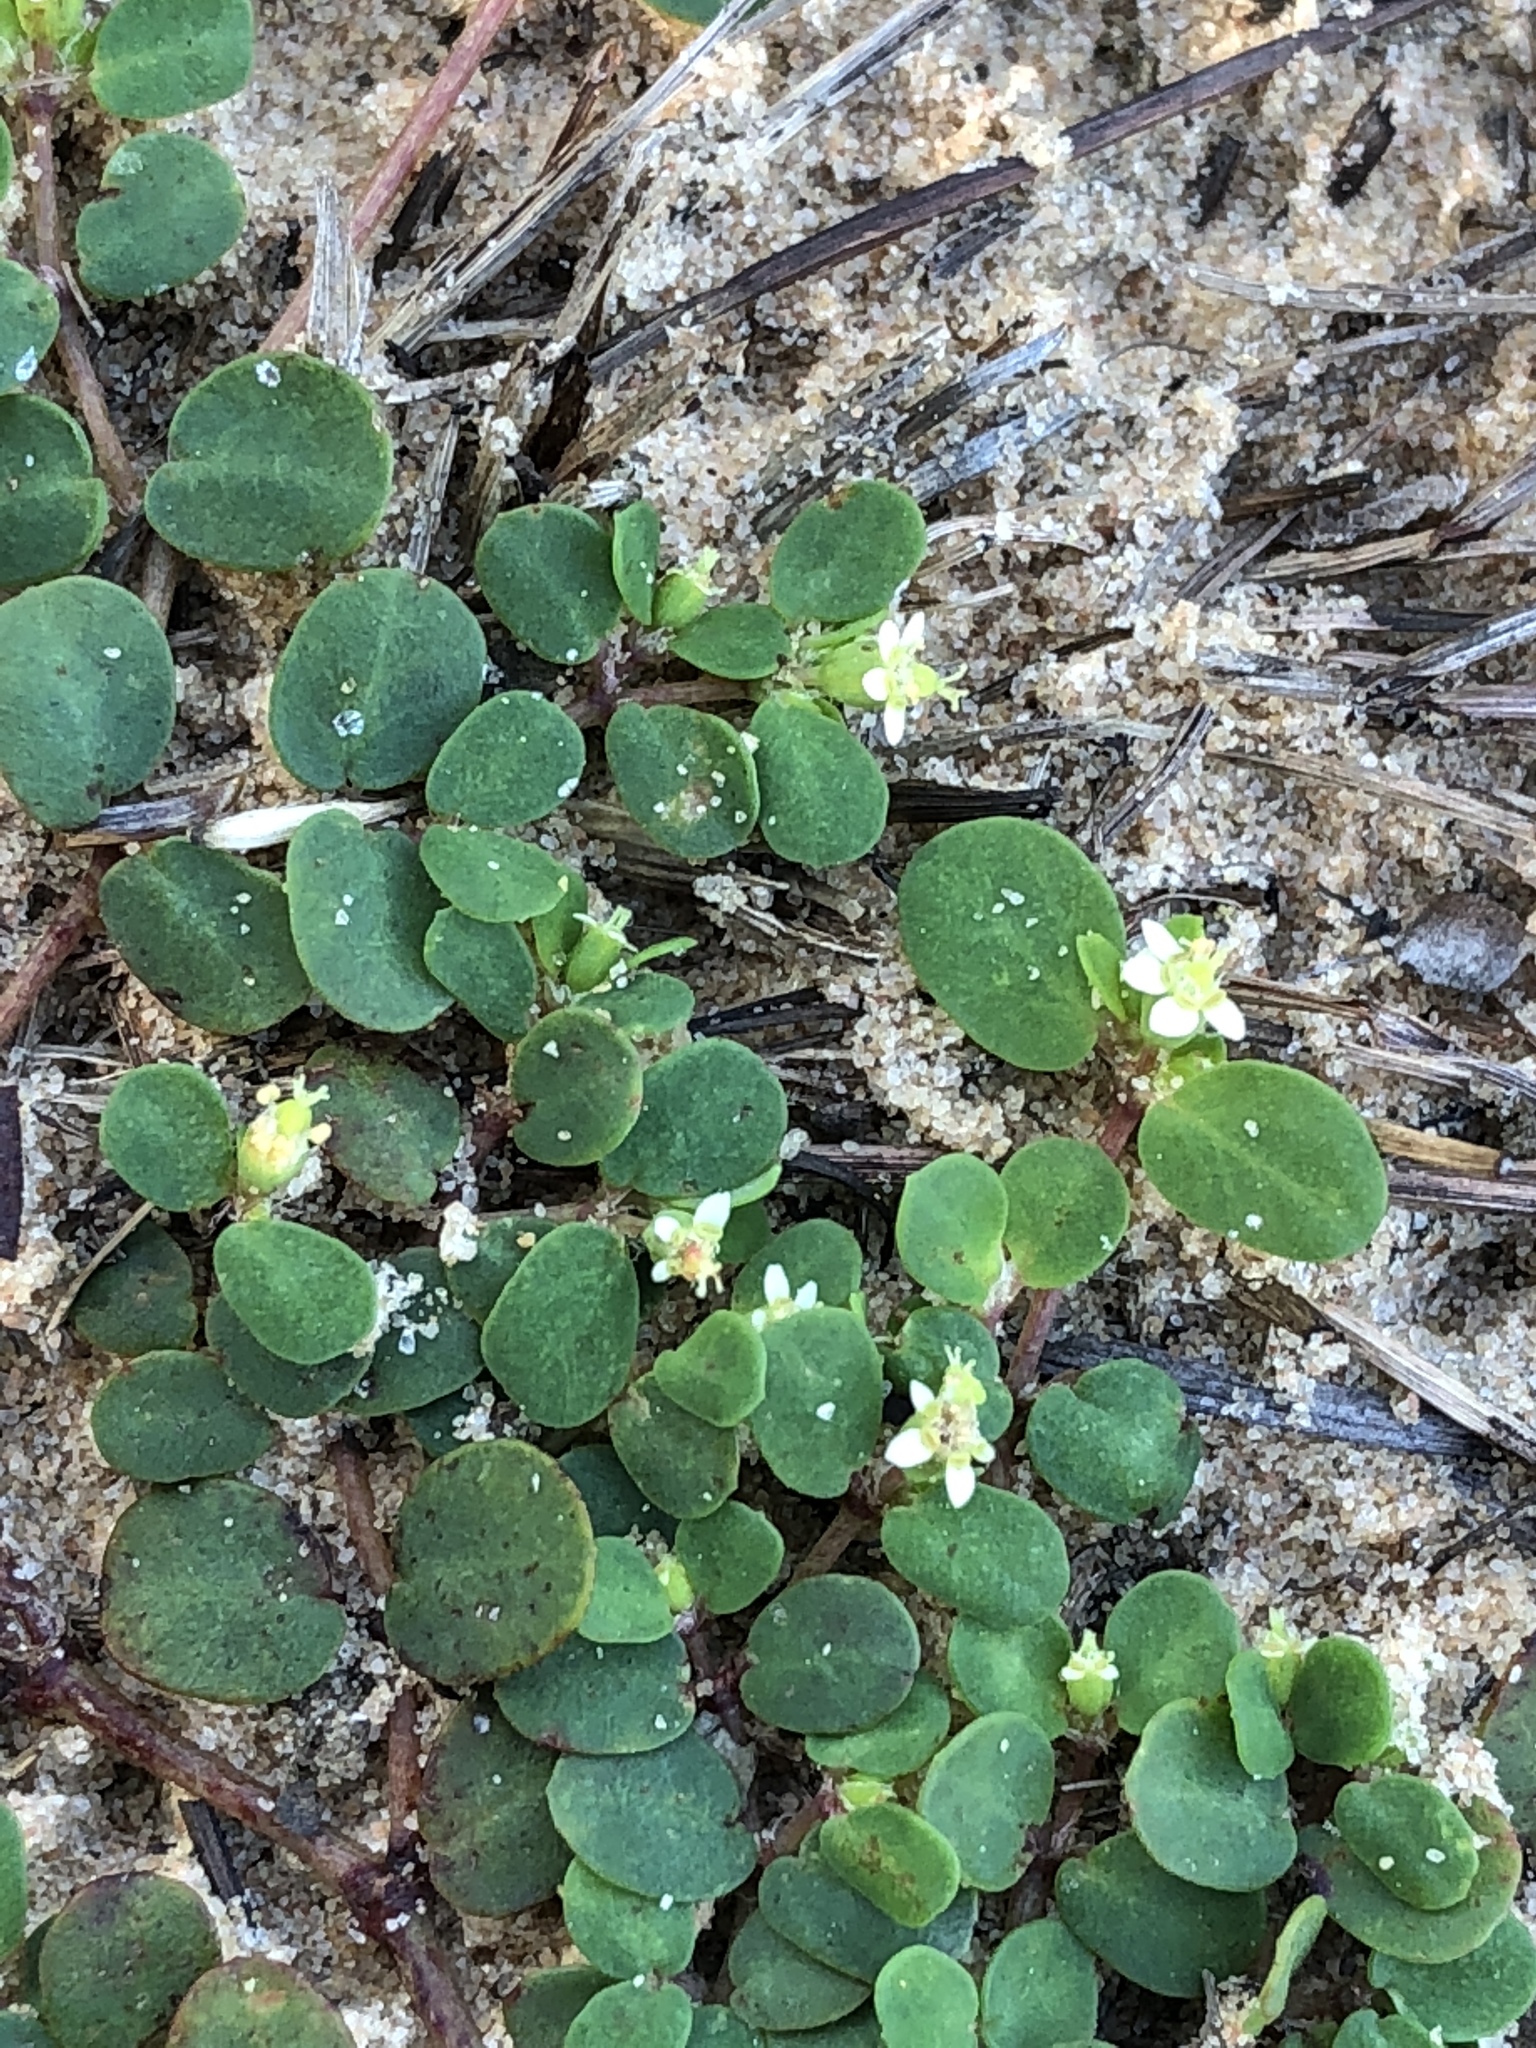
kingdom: Plantae
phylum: Tracheophyta
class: Magnoliopsida
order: Malpighiales
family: Euphorbiaceae
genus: Euphorbia
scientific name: Euphorbia cordifolia
